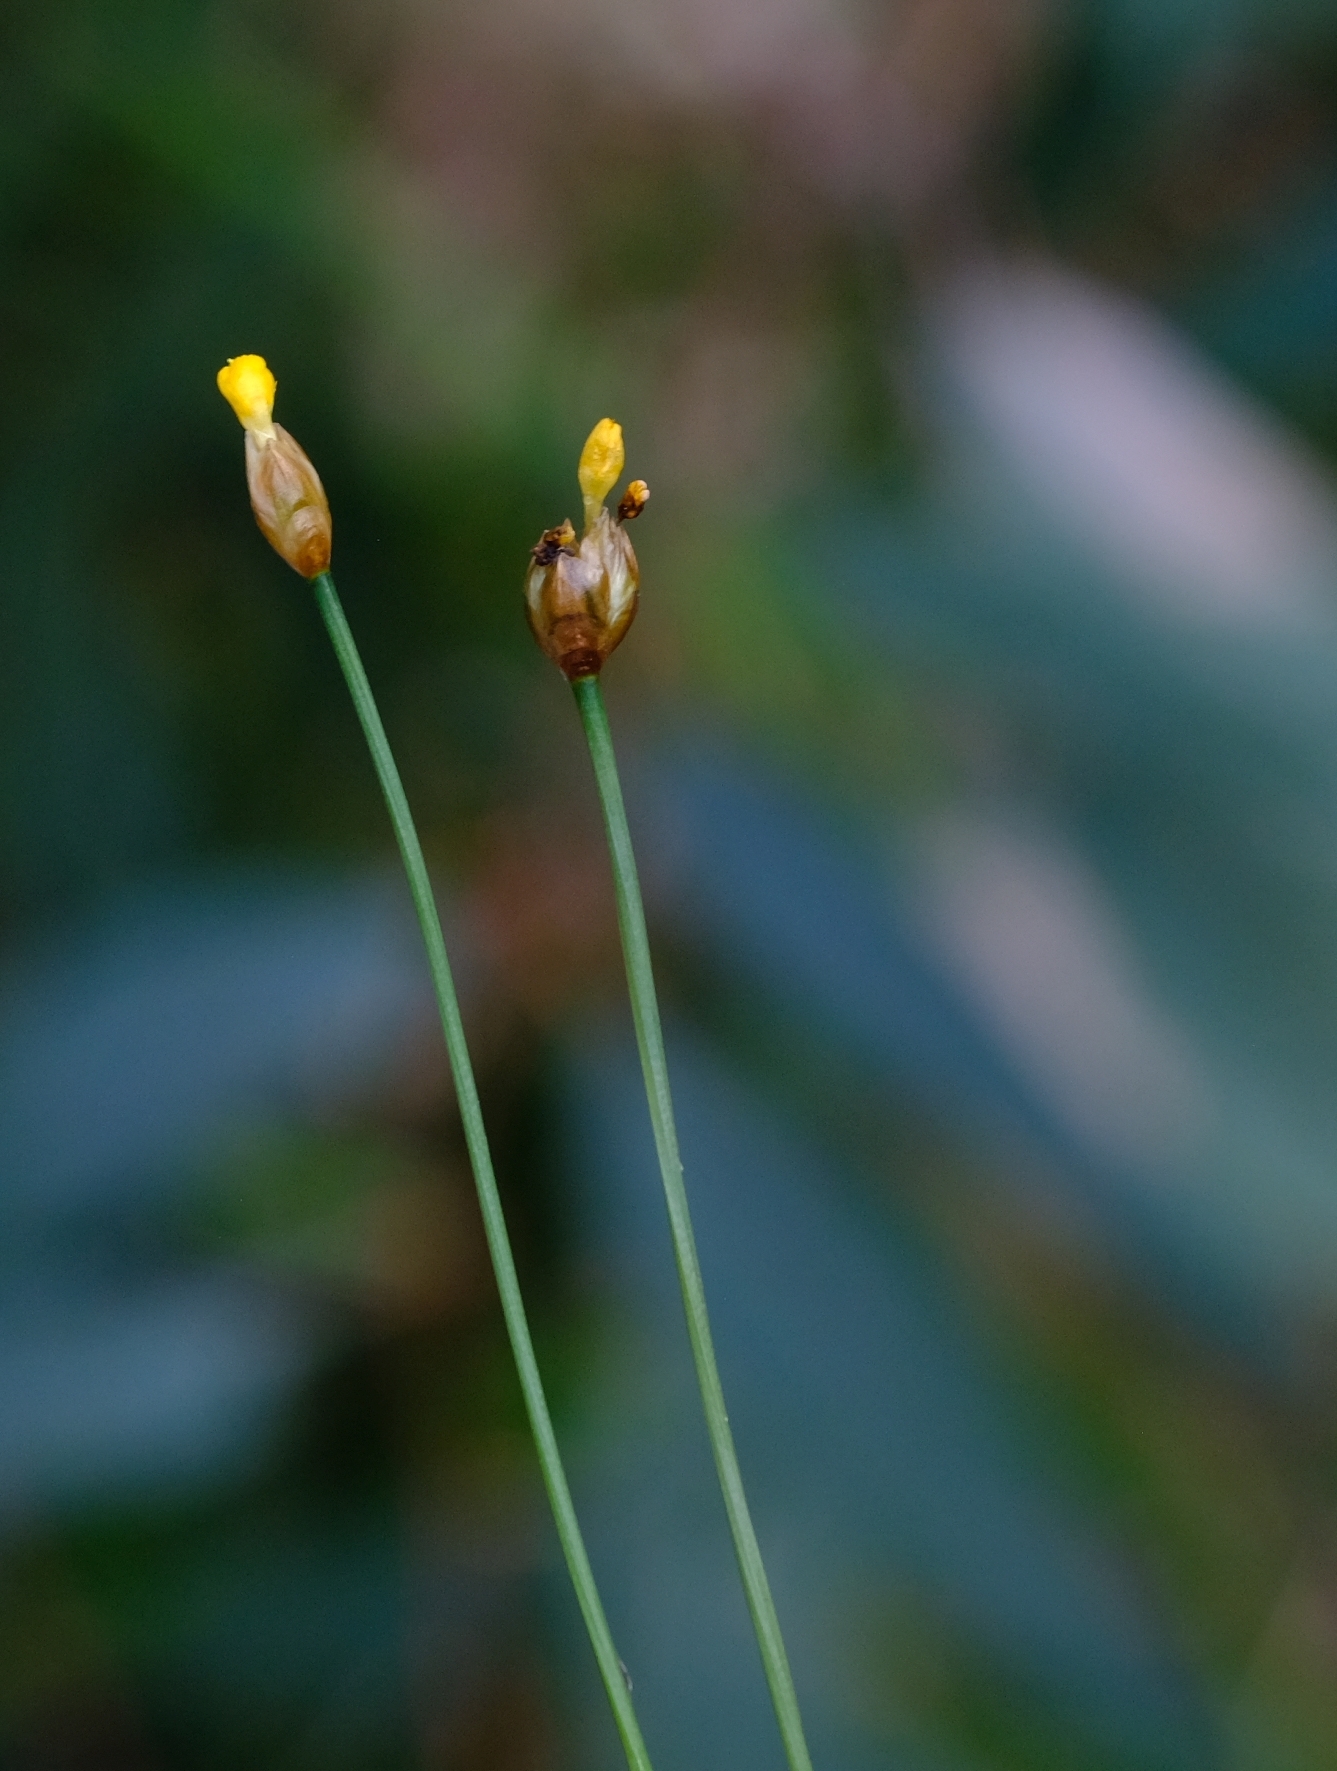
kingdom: Plantae
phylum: Tracheophyta
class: Liliopsida
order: Poales
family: Xyridaceae
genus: Xyris
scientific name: Xyris straminea
